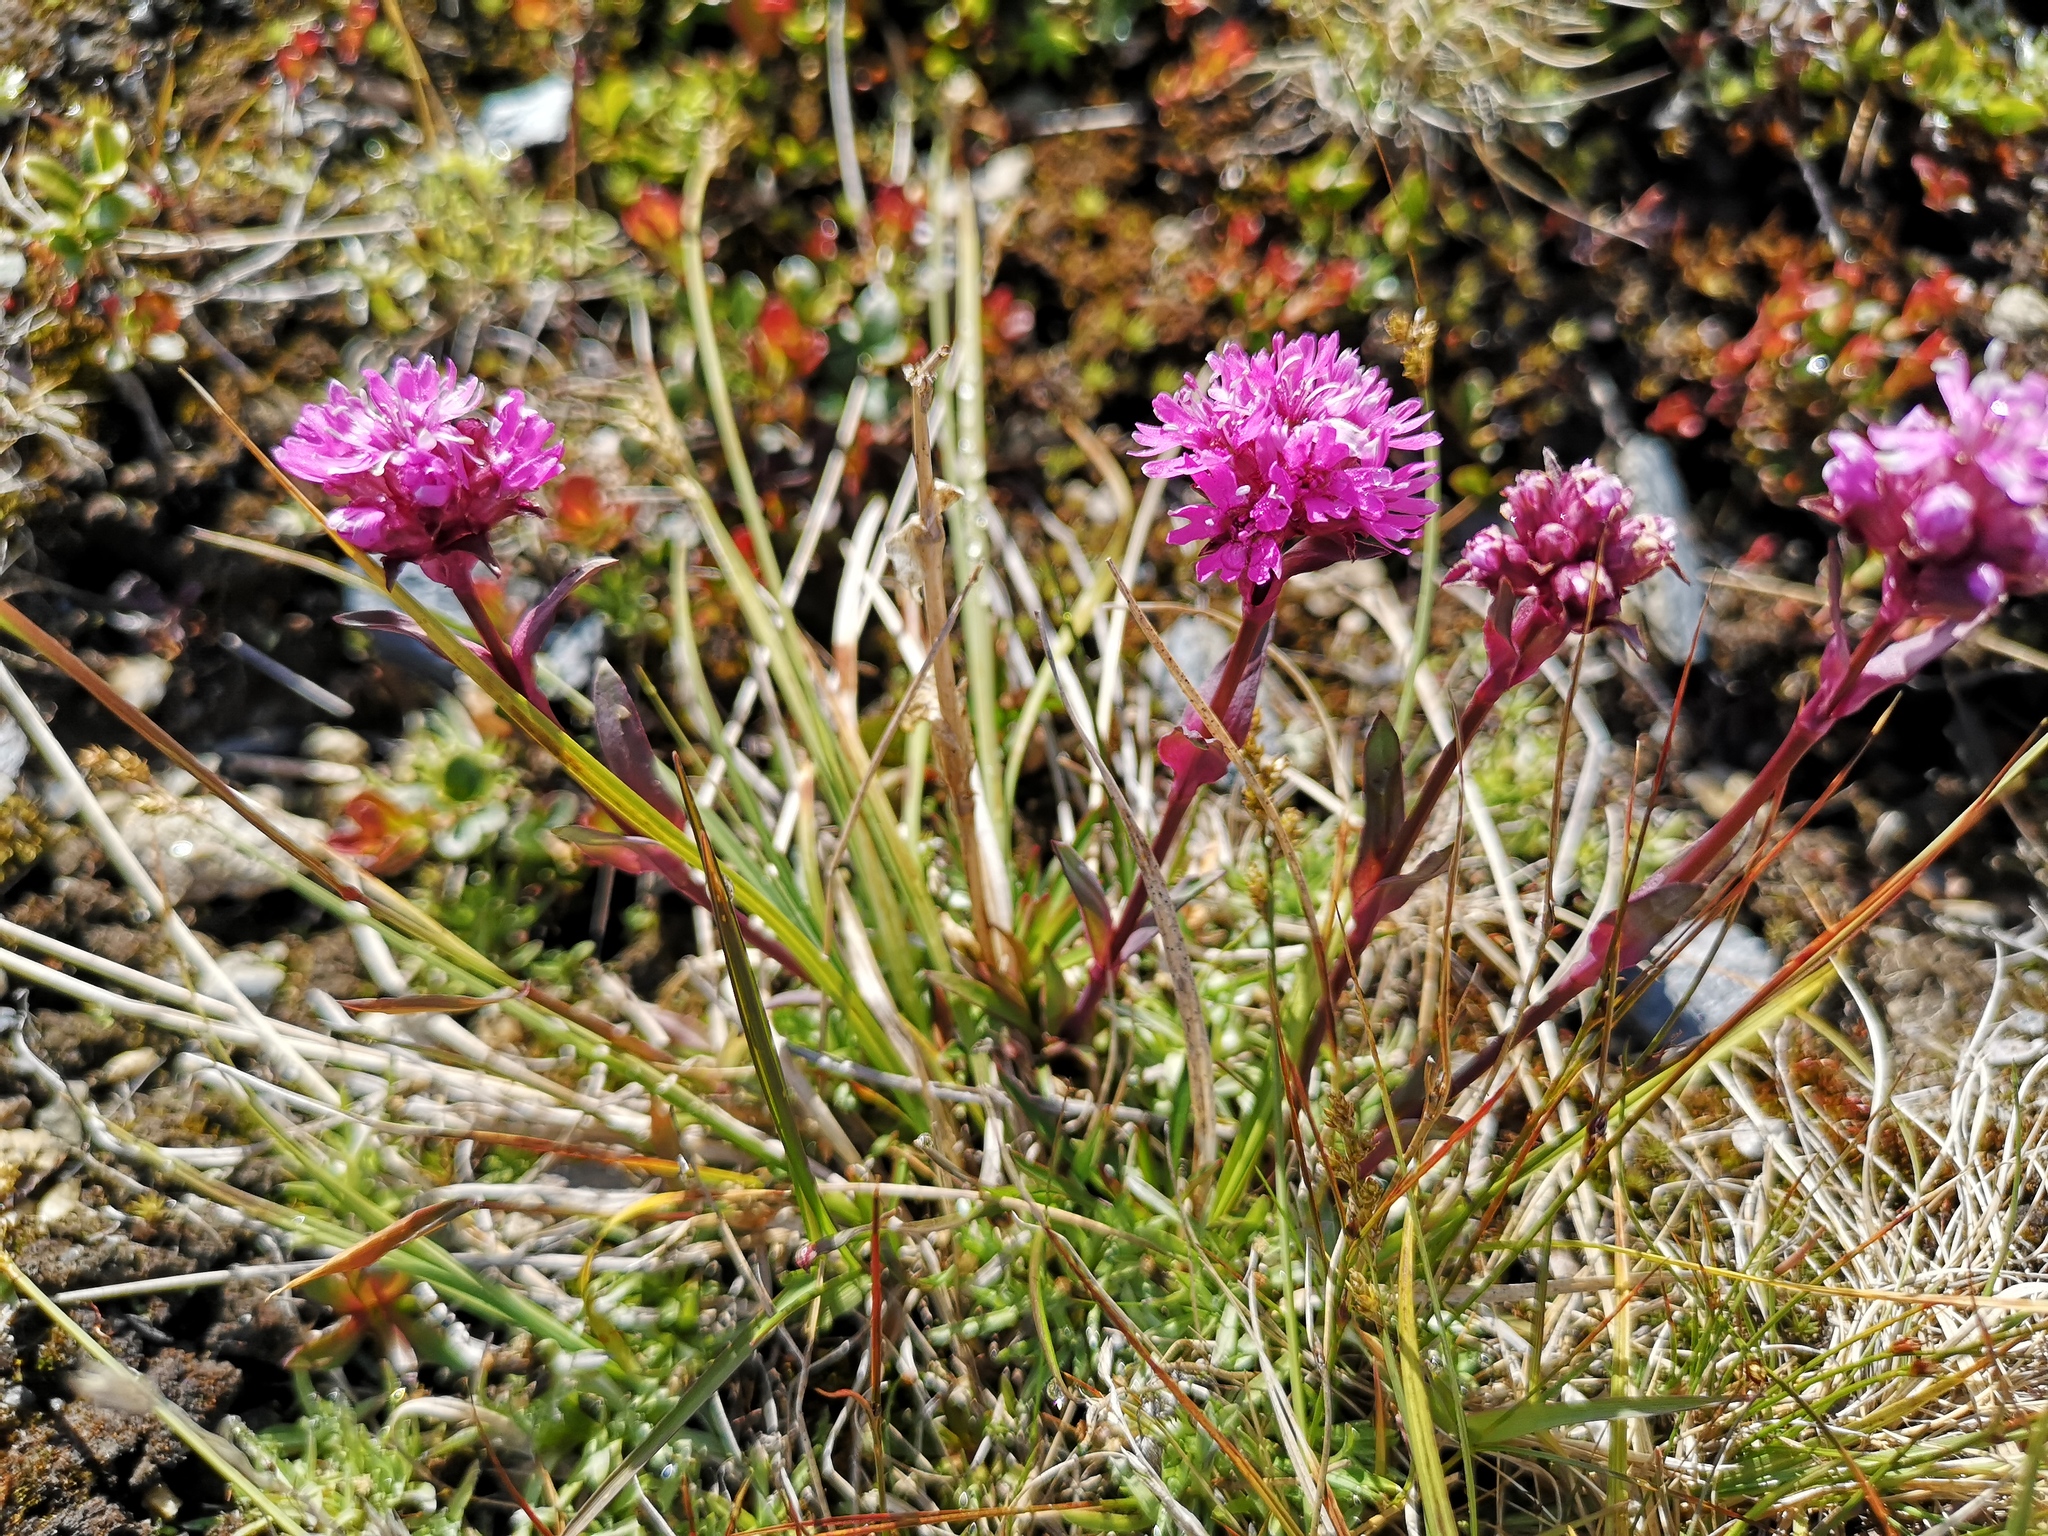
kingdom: Plantae
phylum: Tracheophyta
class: Magnoliopsida
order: Caryophyllales
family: Caryophyllaceae
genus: Viscaria
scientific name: Viscaria alpina
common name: Alpine campion
